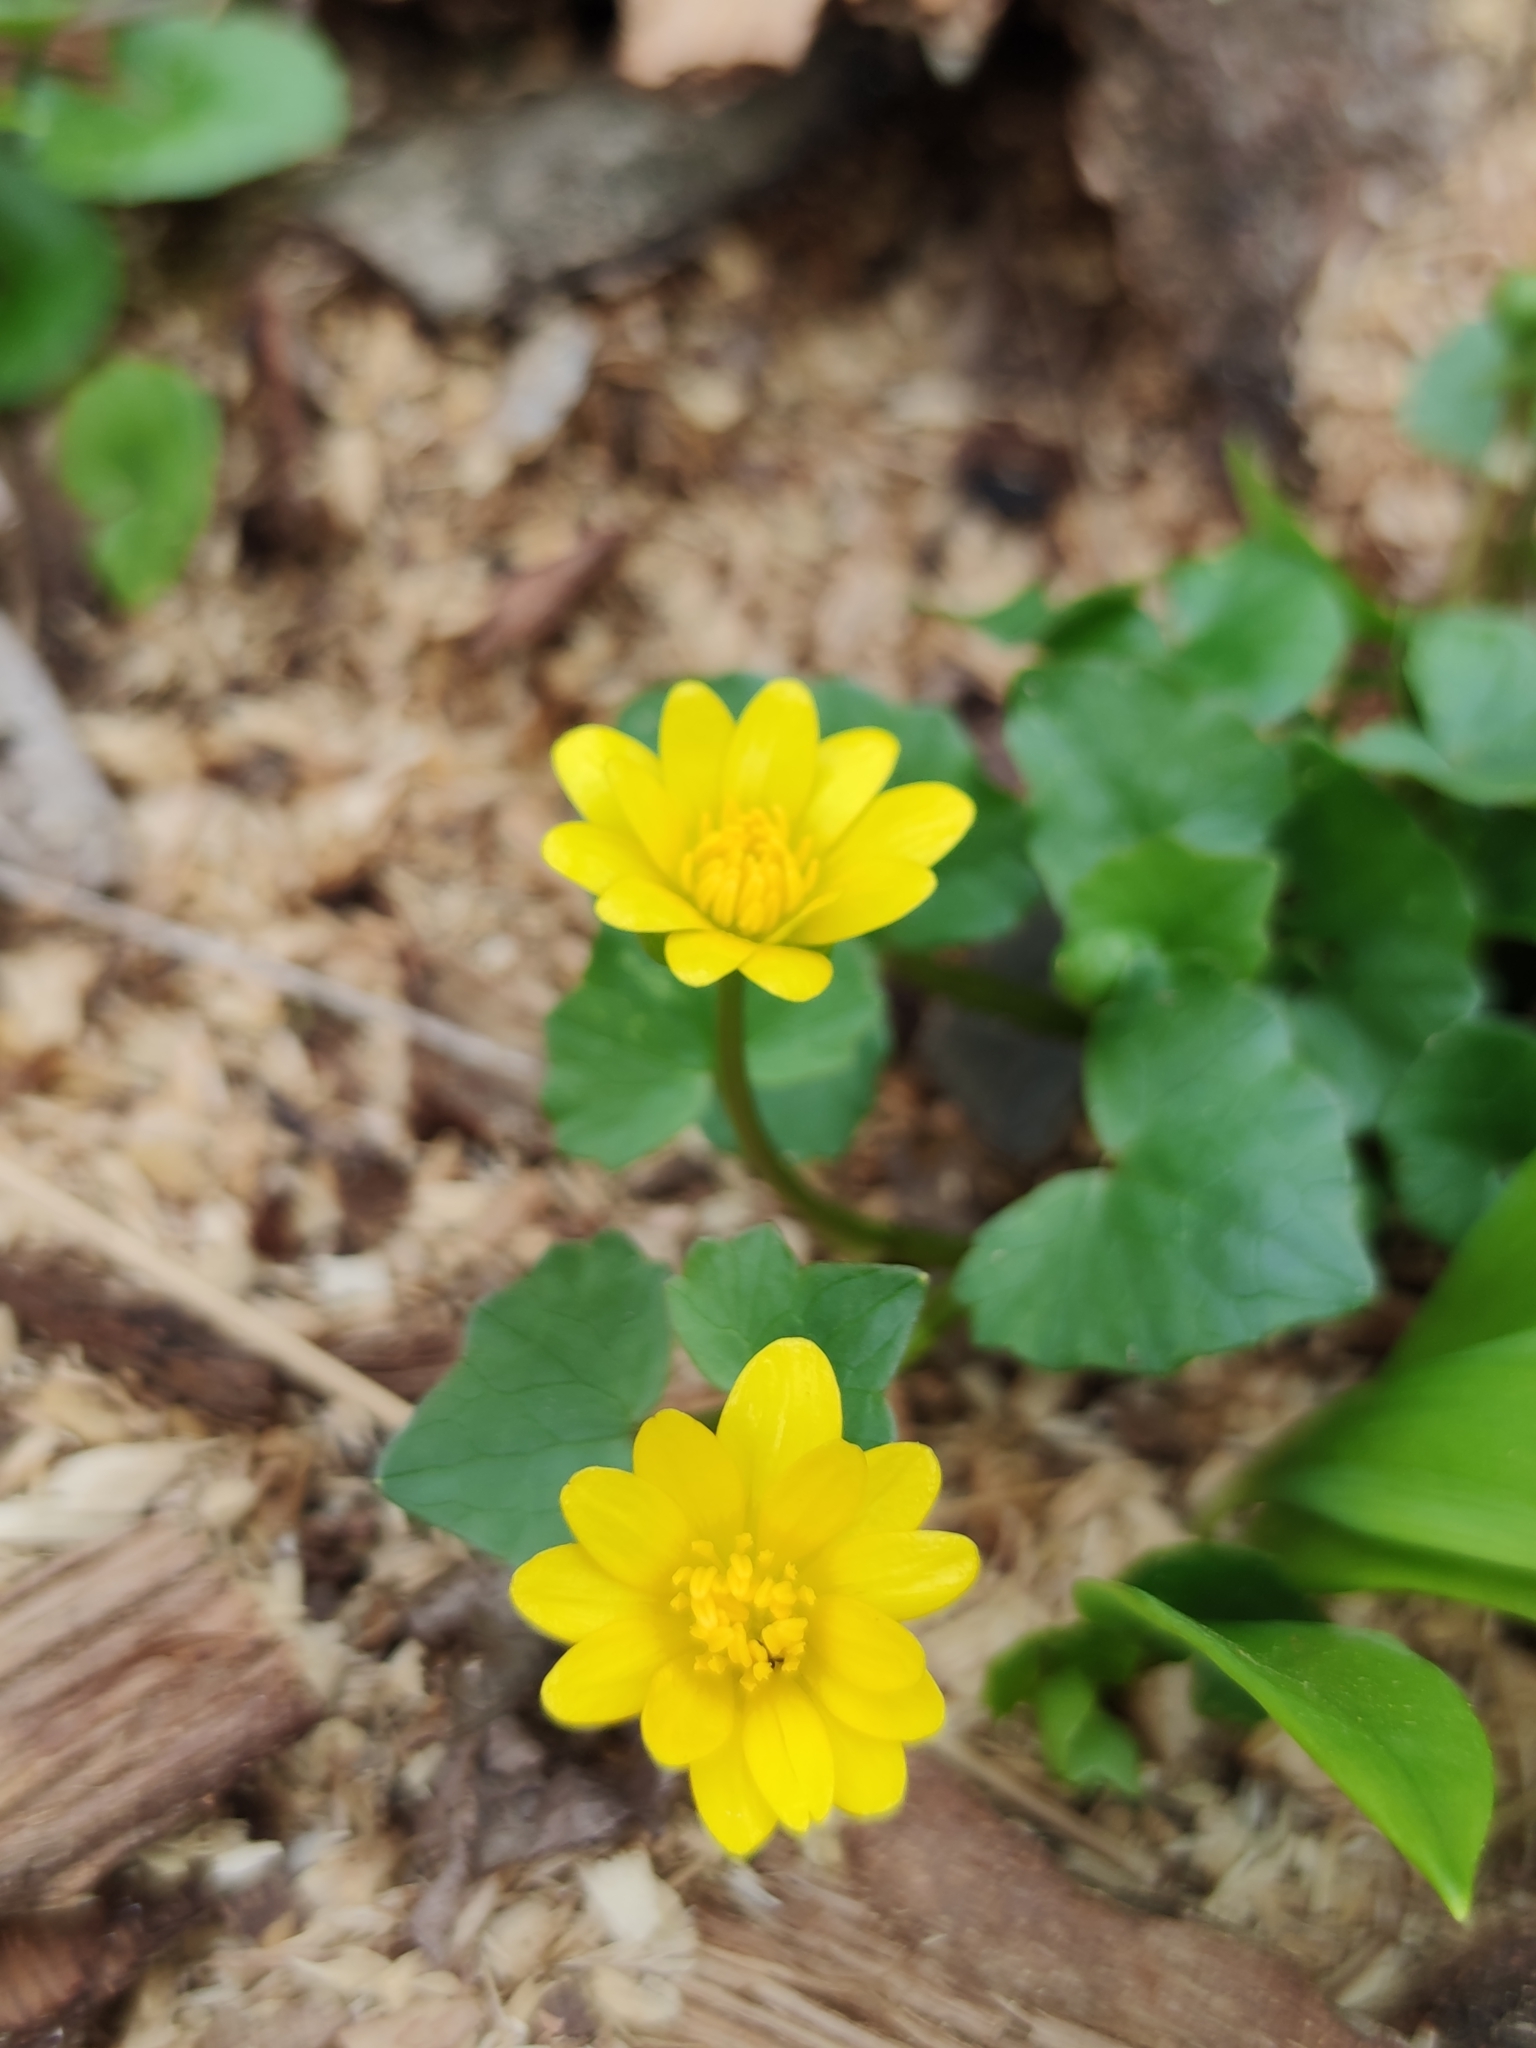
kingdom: Plantae
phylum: Tracheophyta
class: Magnoliopsida
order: Ranunculales
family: Ranunculaceae
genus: Ficaria
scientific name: Ficaria verna
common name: Lesser celandine
